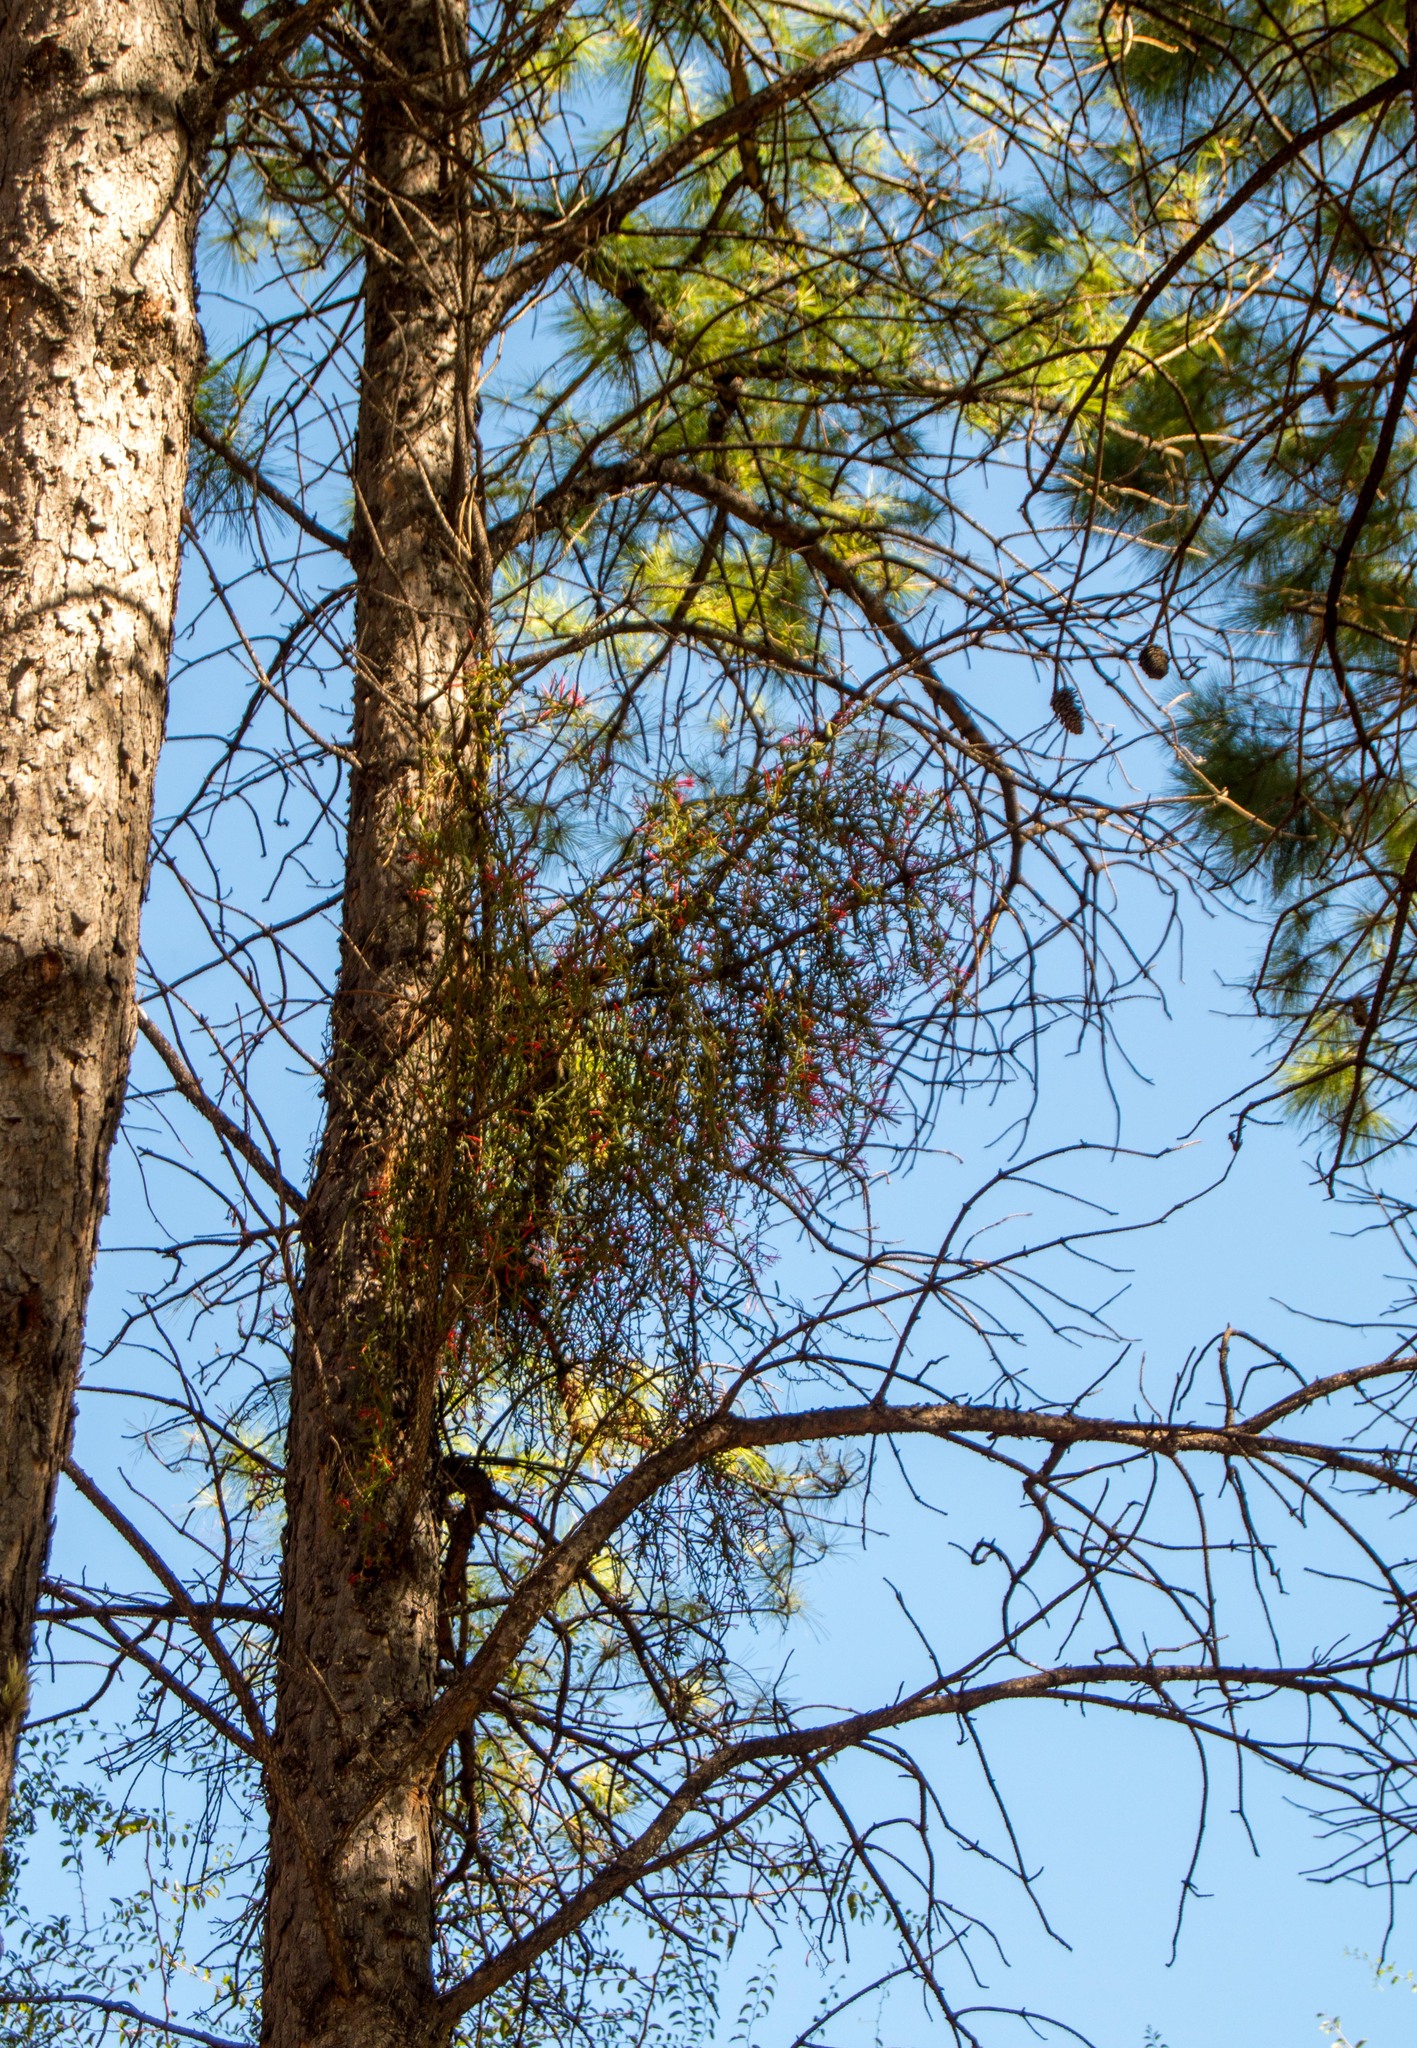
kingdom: Plantae
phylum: Tracheophyta
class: Magnoliopsida
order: Santalales
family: Loranthaceae
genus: Ligaria
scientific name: Ligaria cuneifolia
